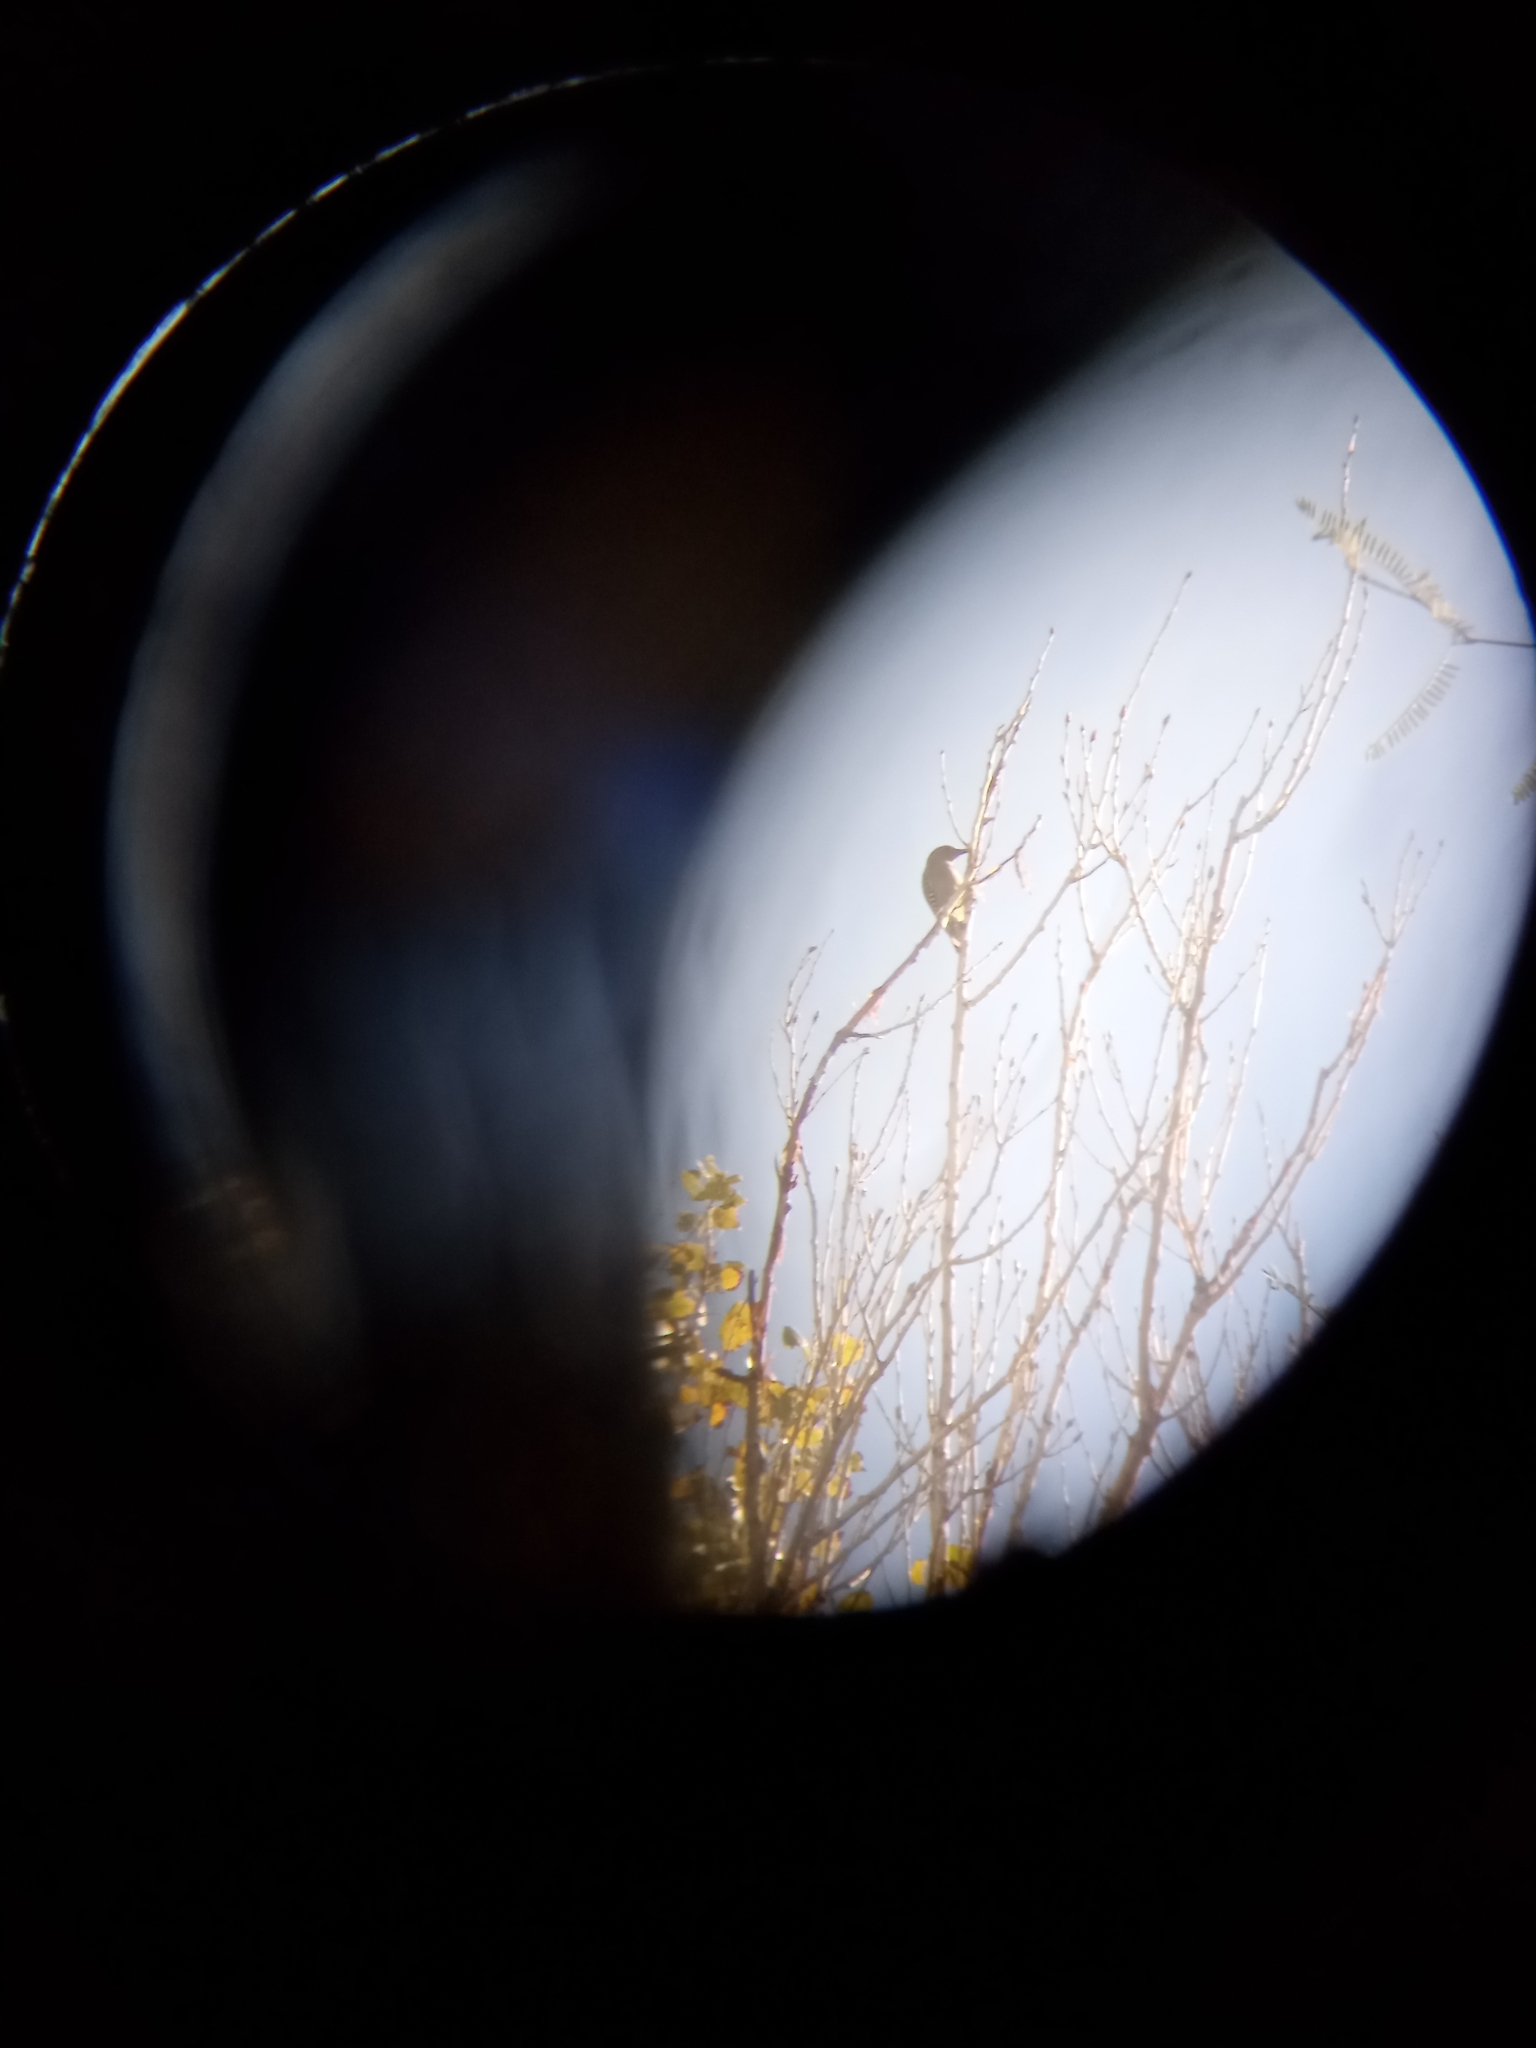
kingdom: Animalia
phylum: Chordata
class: Aves
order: Piciformes
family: Picidae
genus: Melanerpes
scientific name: Melanerpes uropygialis
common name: Gila woodpecker
